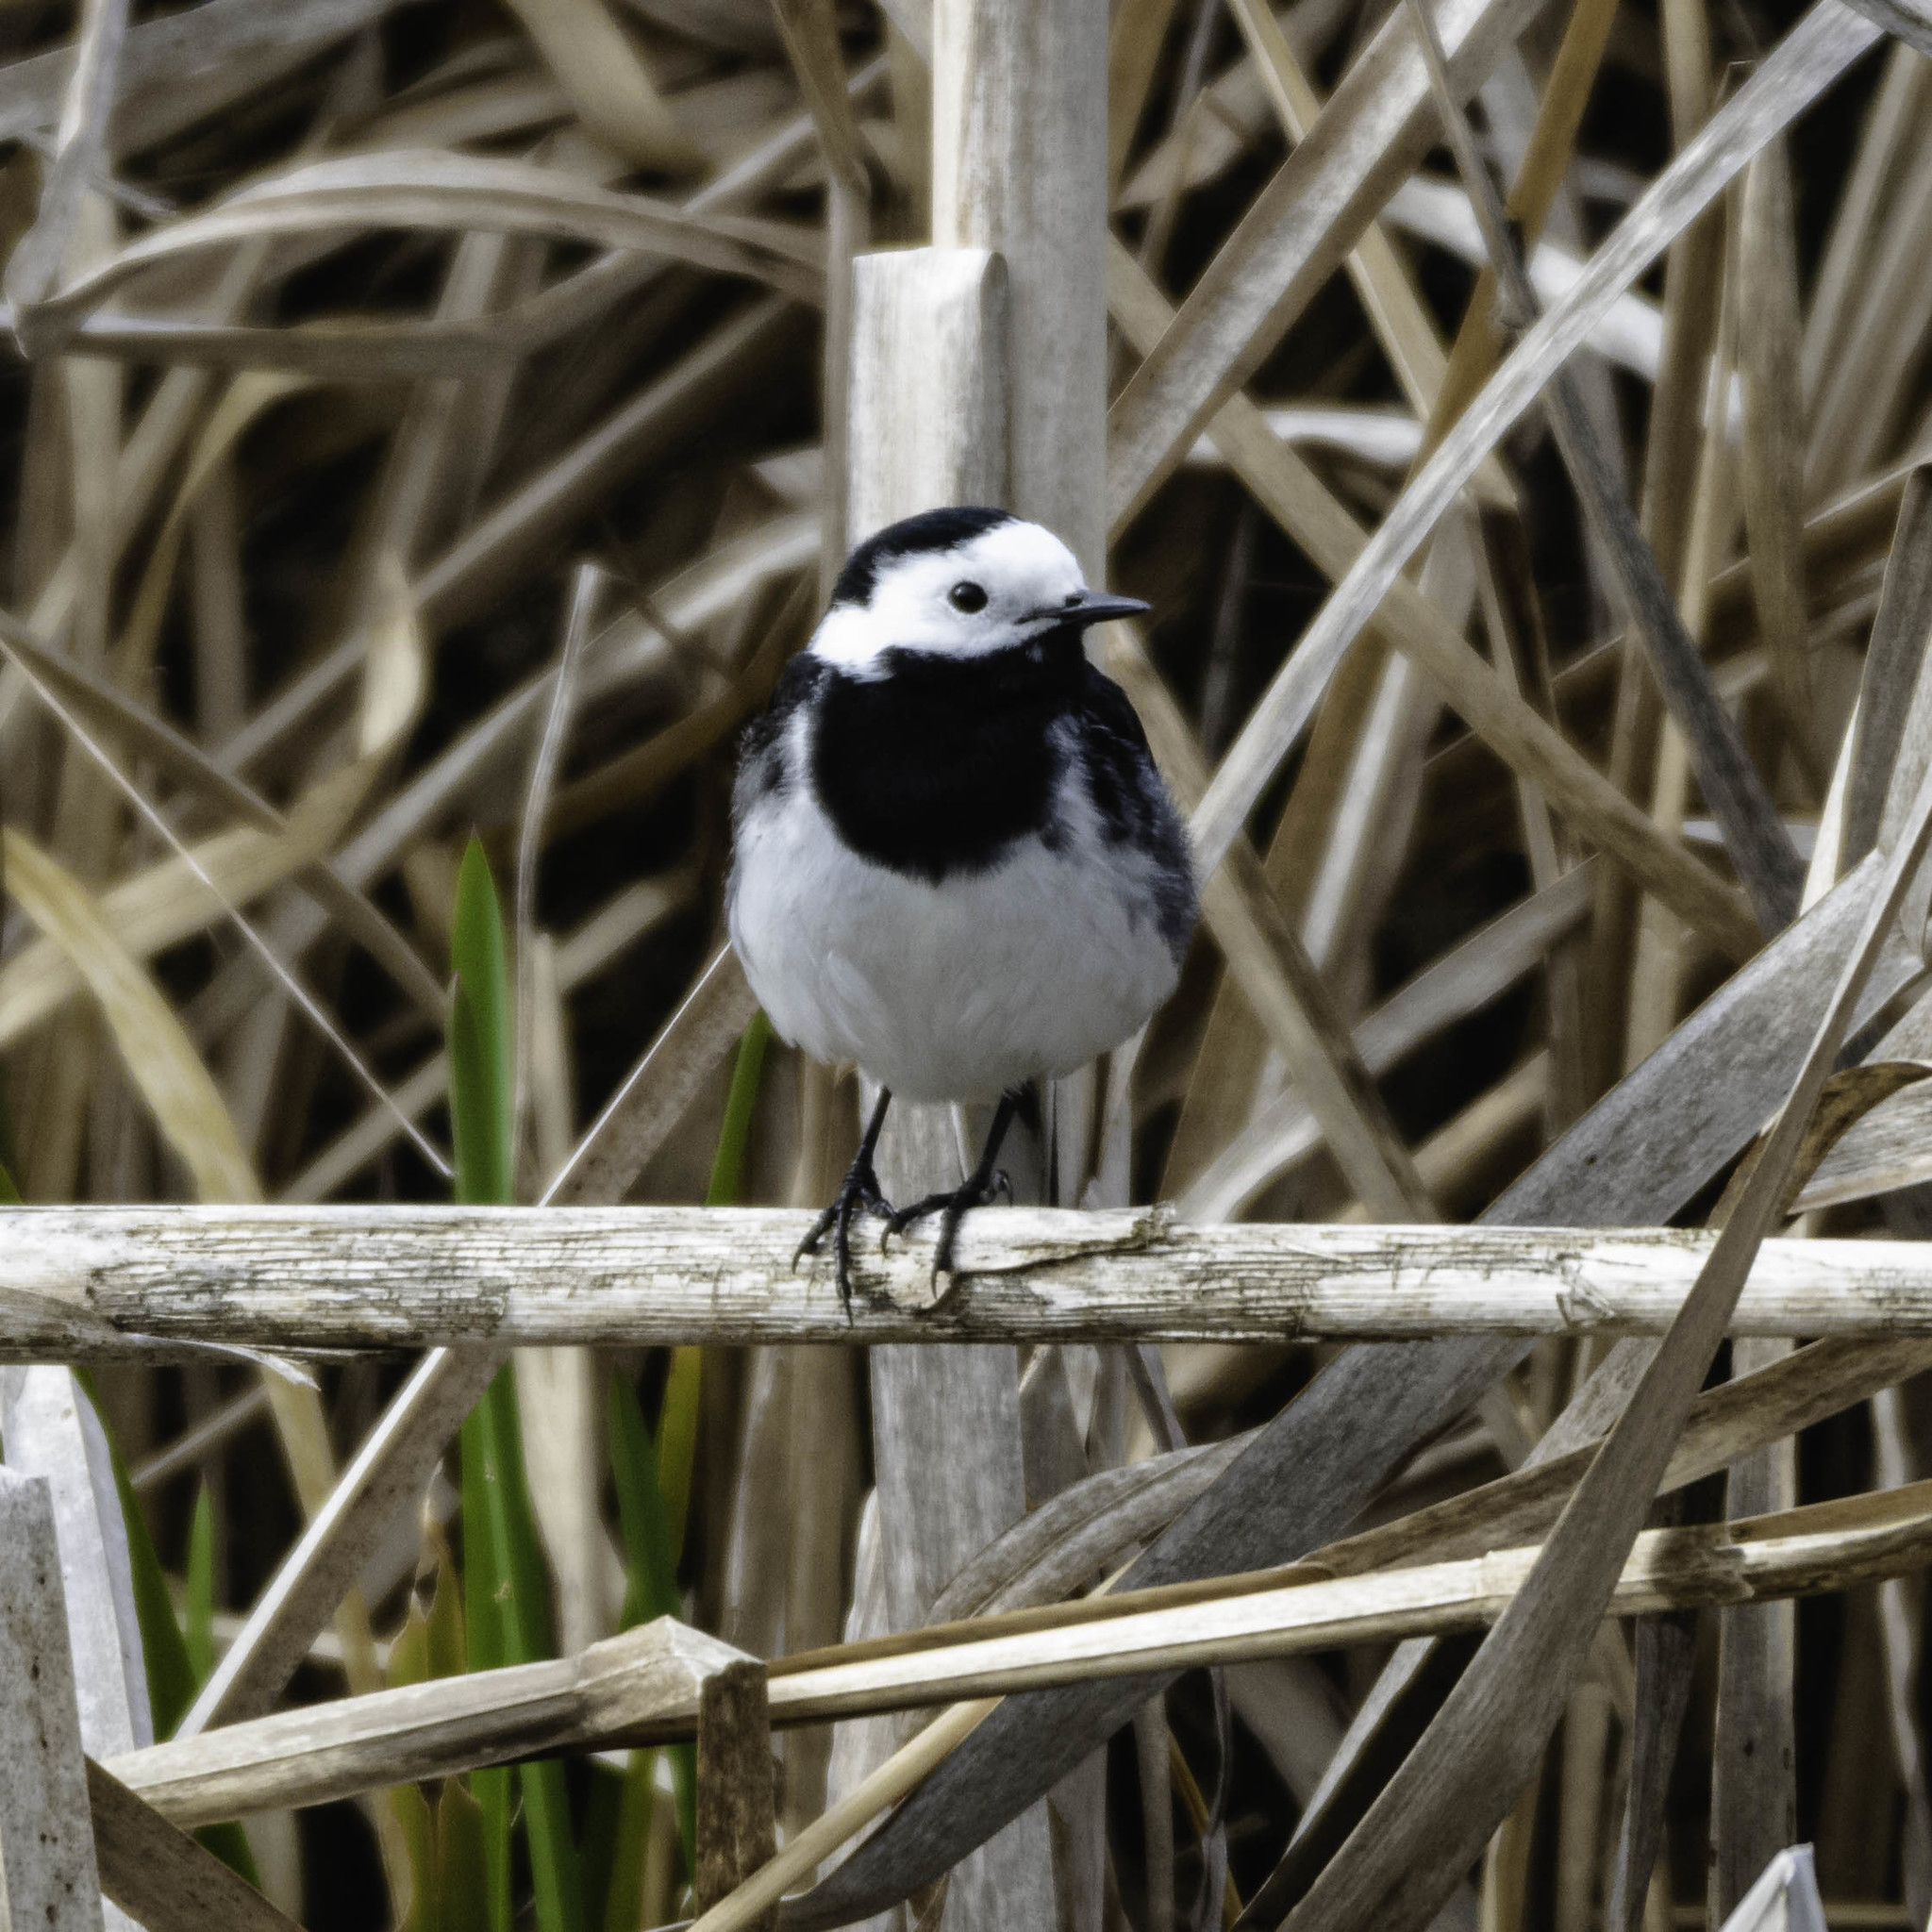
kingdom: Animalia
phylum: Chordata
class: Aves
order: Passeriformes
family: Motacillidae
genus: Motacilla
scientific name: Motacilla alba
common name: White wagtail
